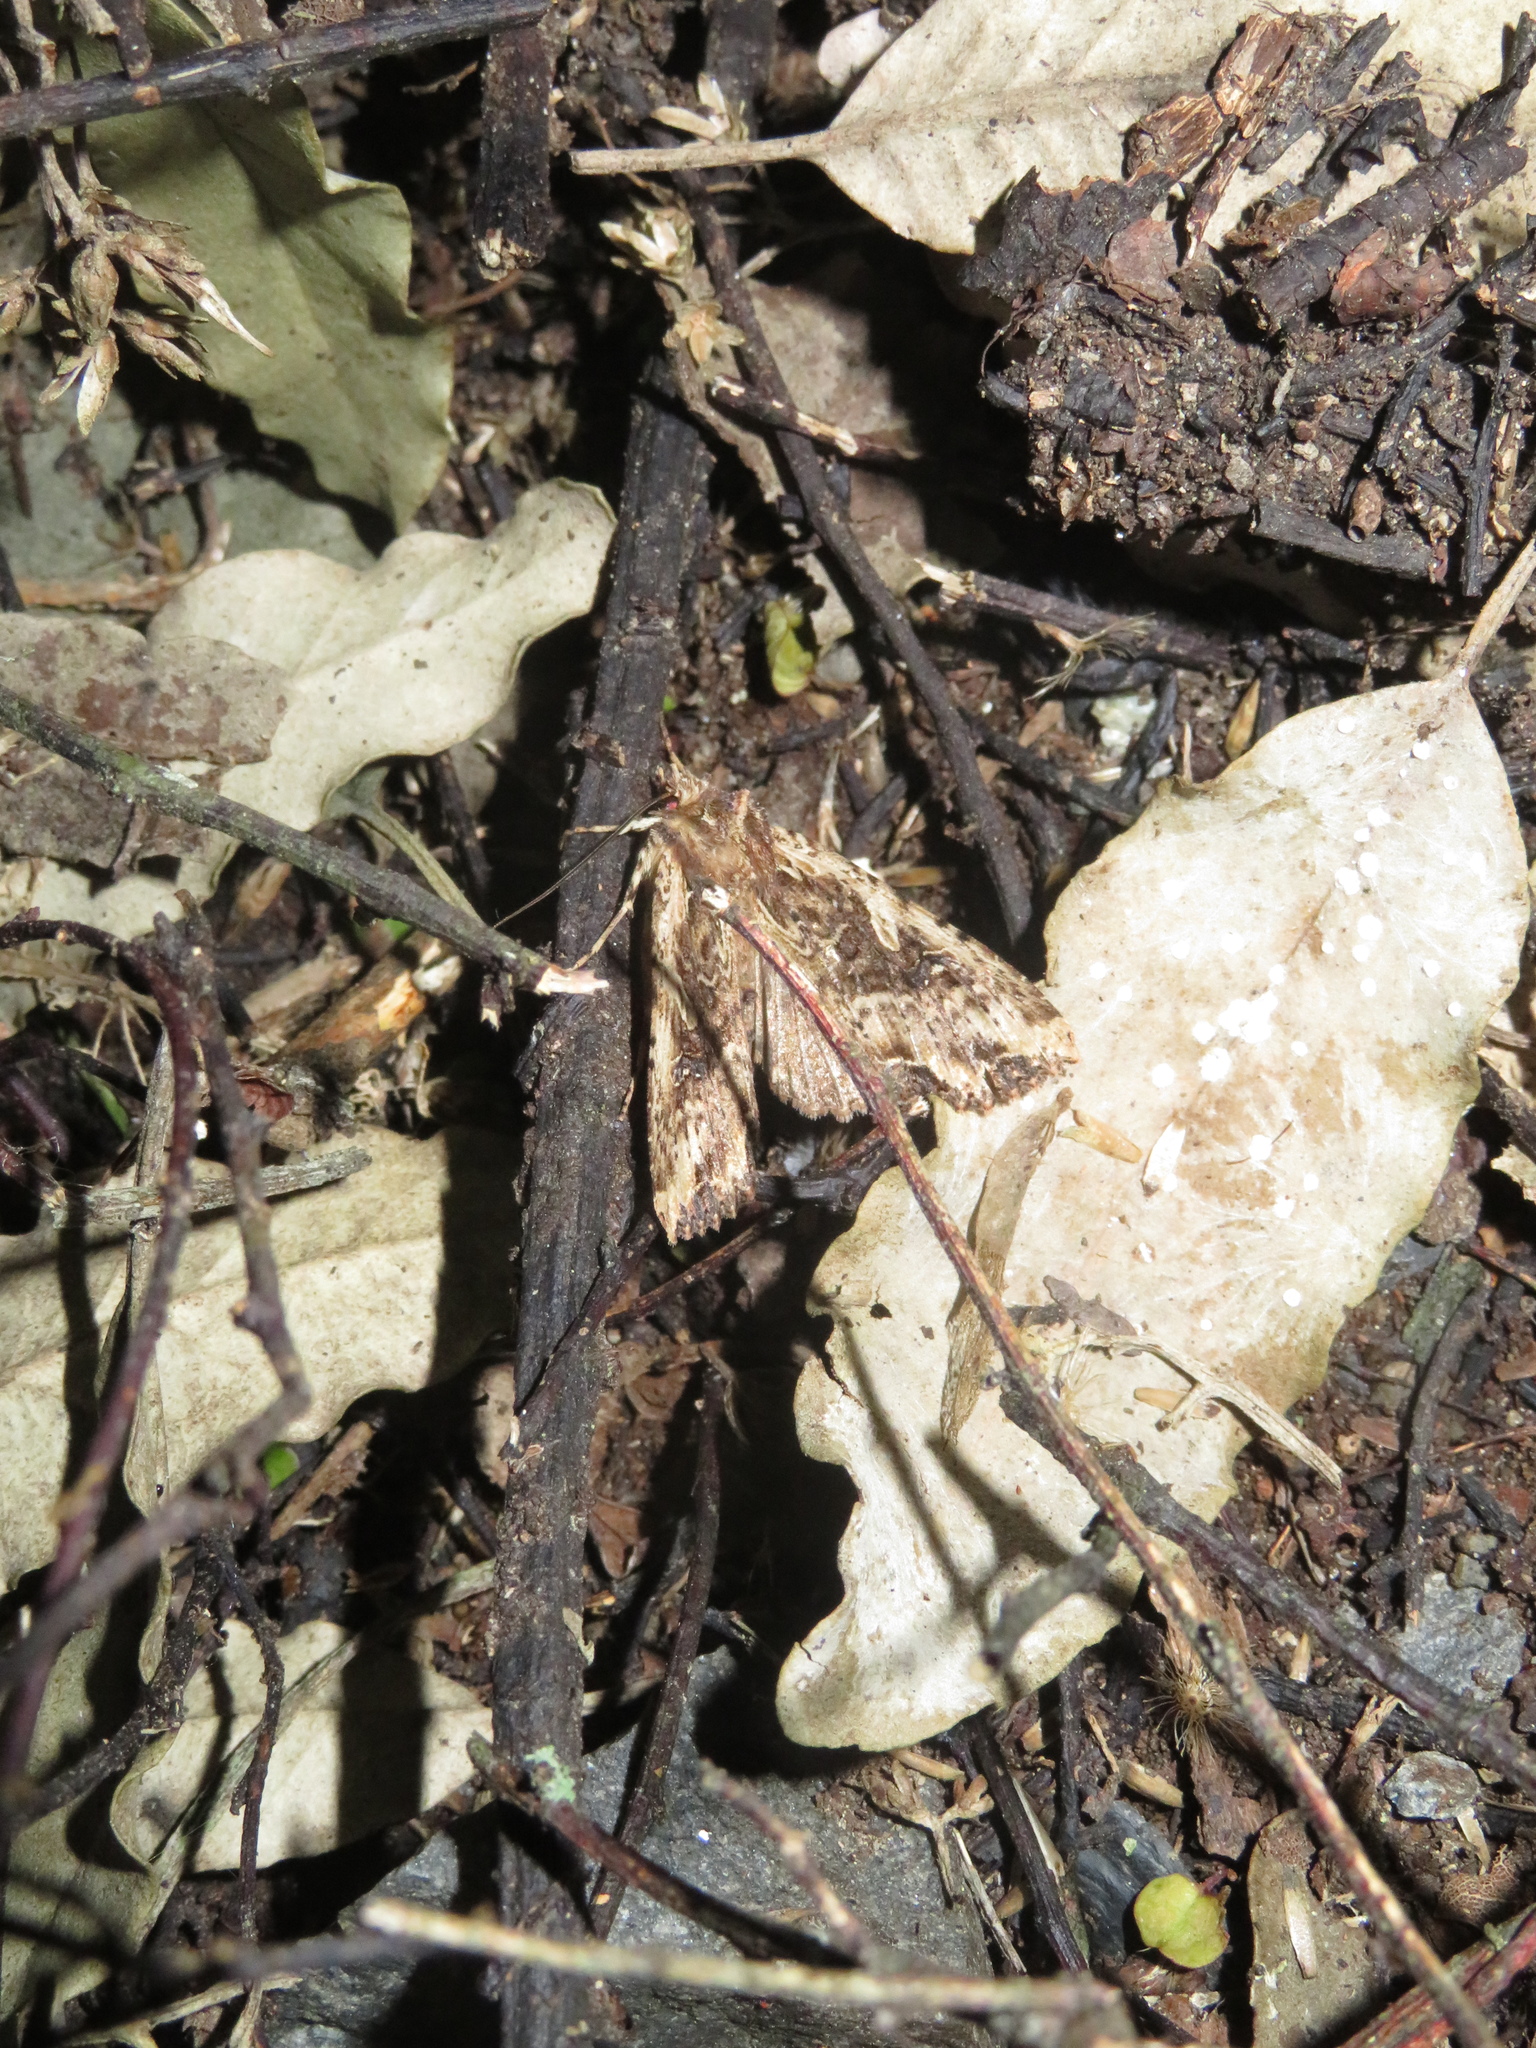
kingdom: Animalia
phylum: Arthropoda
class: Insecta
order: Lepidoptera
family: Noctuidae
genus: Meterana
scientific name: Meterana stipata
